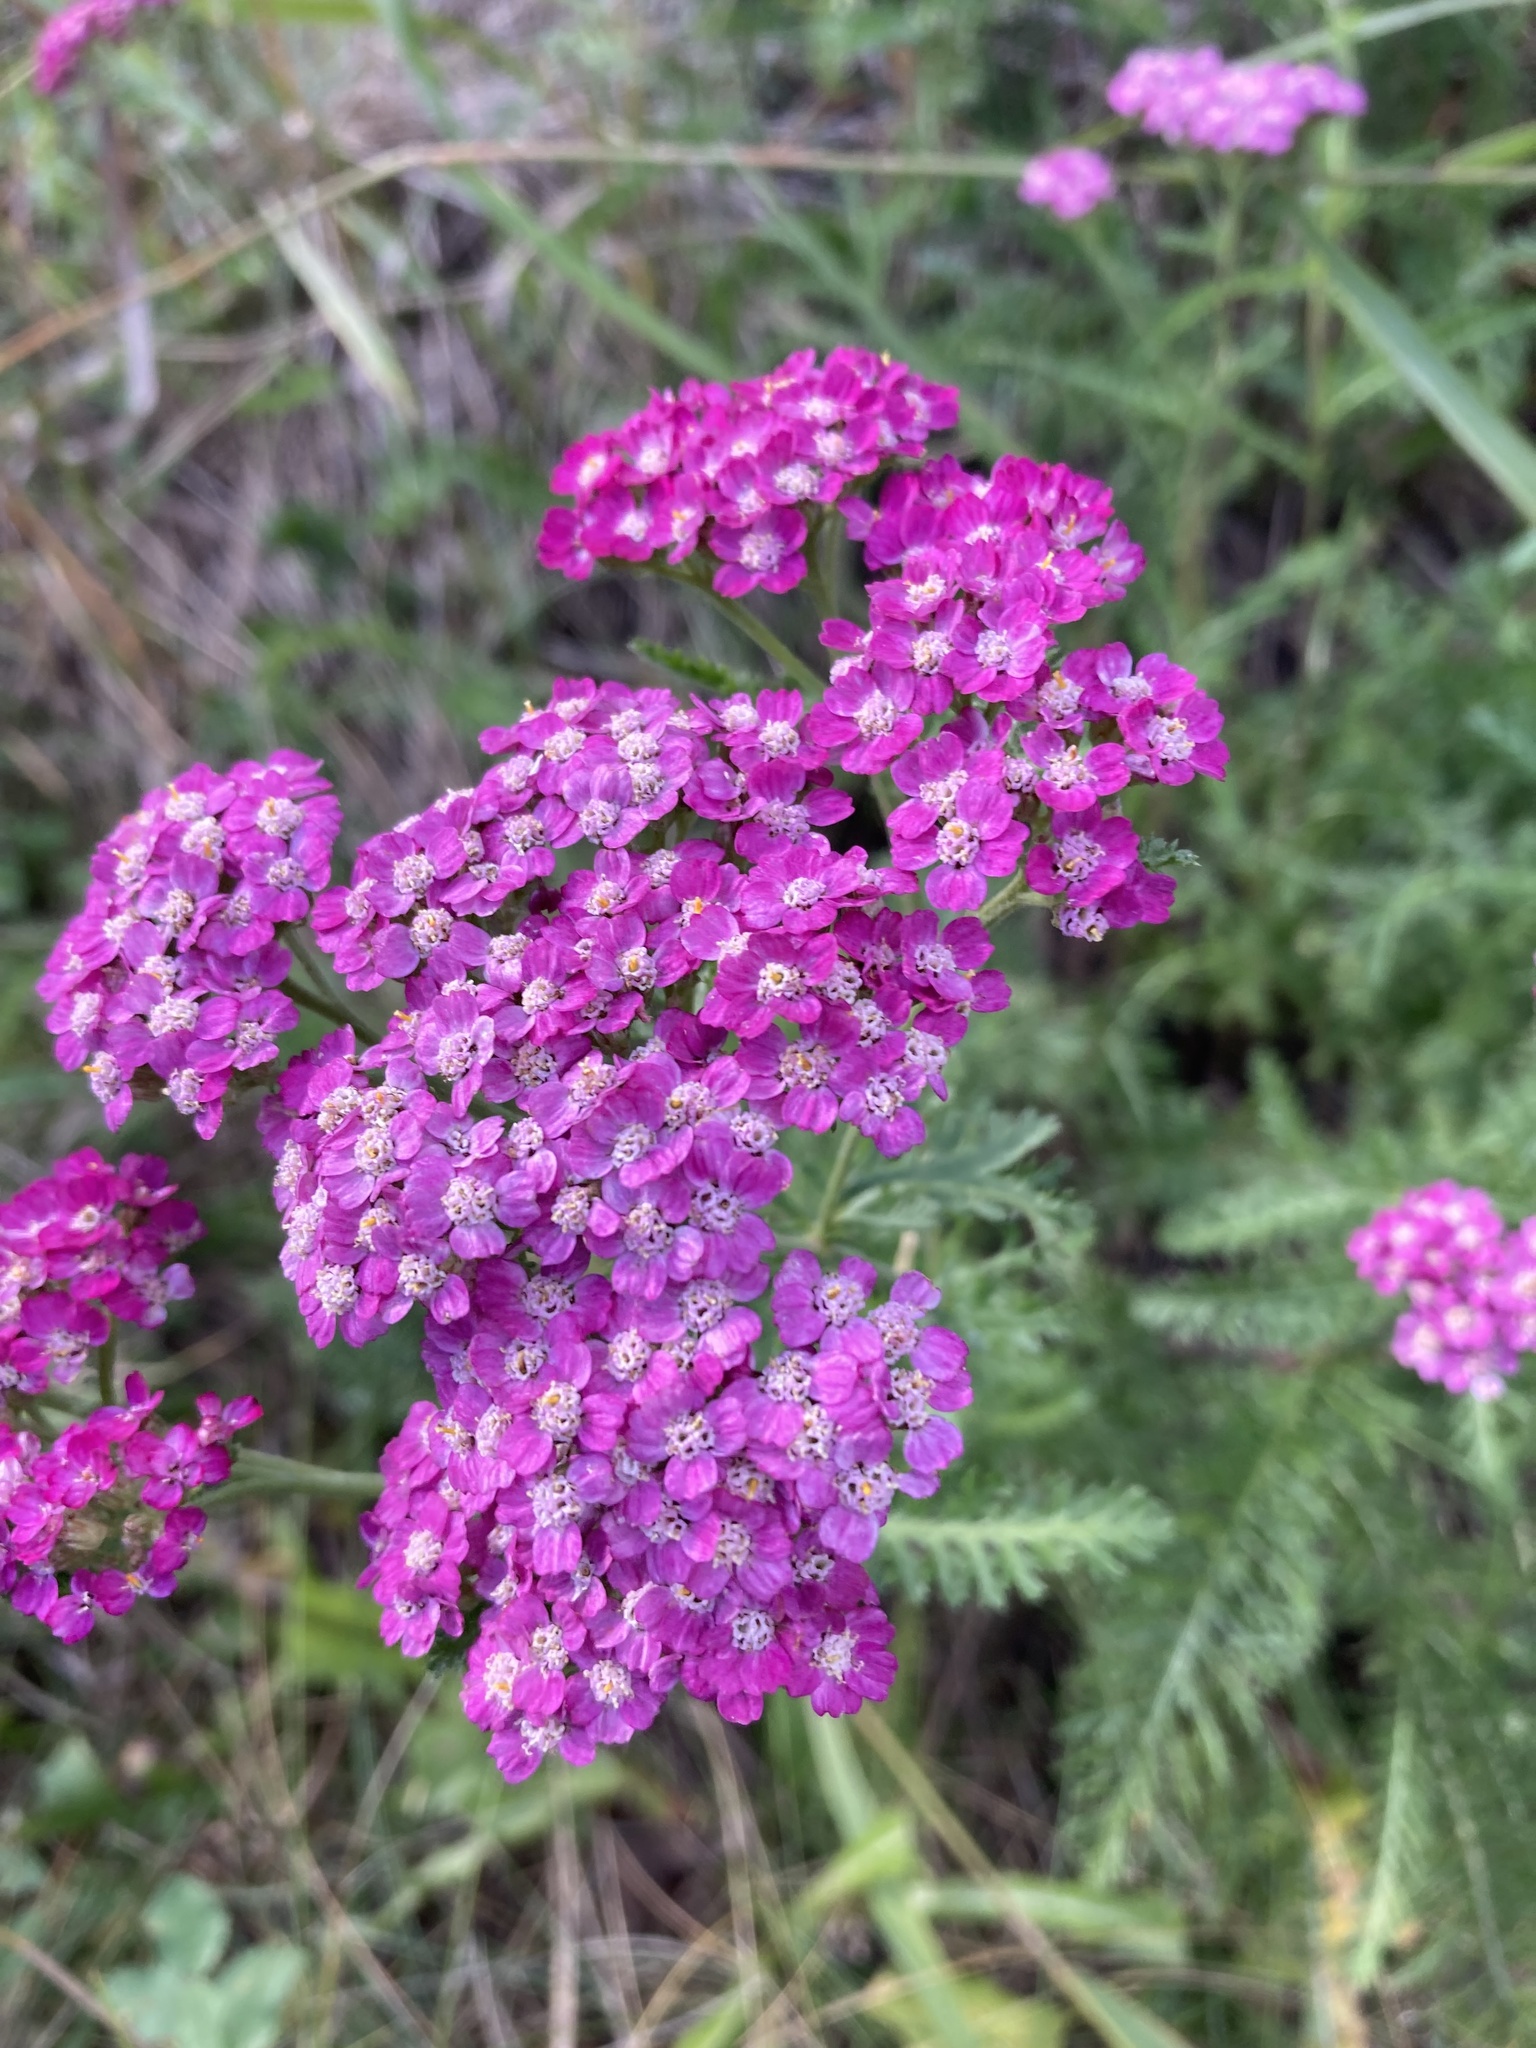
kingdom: Plantae
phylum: Tracheophyta
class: Magnoliopsida
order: Asterales
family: Asteraceae
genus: Achillea
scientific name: Achillea millefolium
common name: Yarrow
